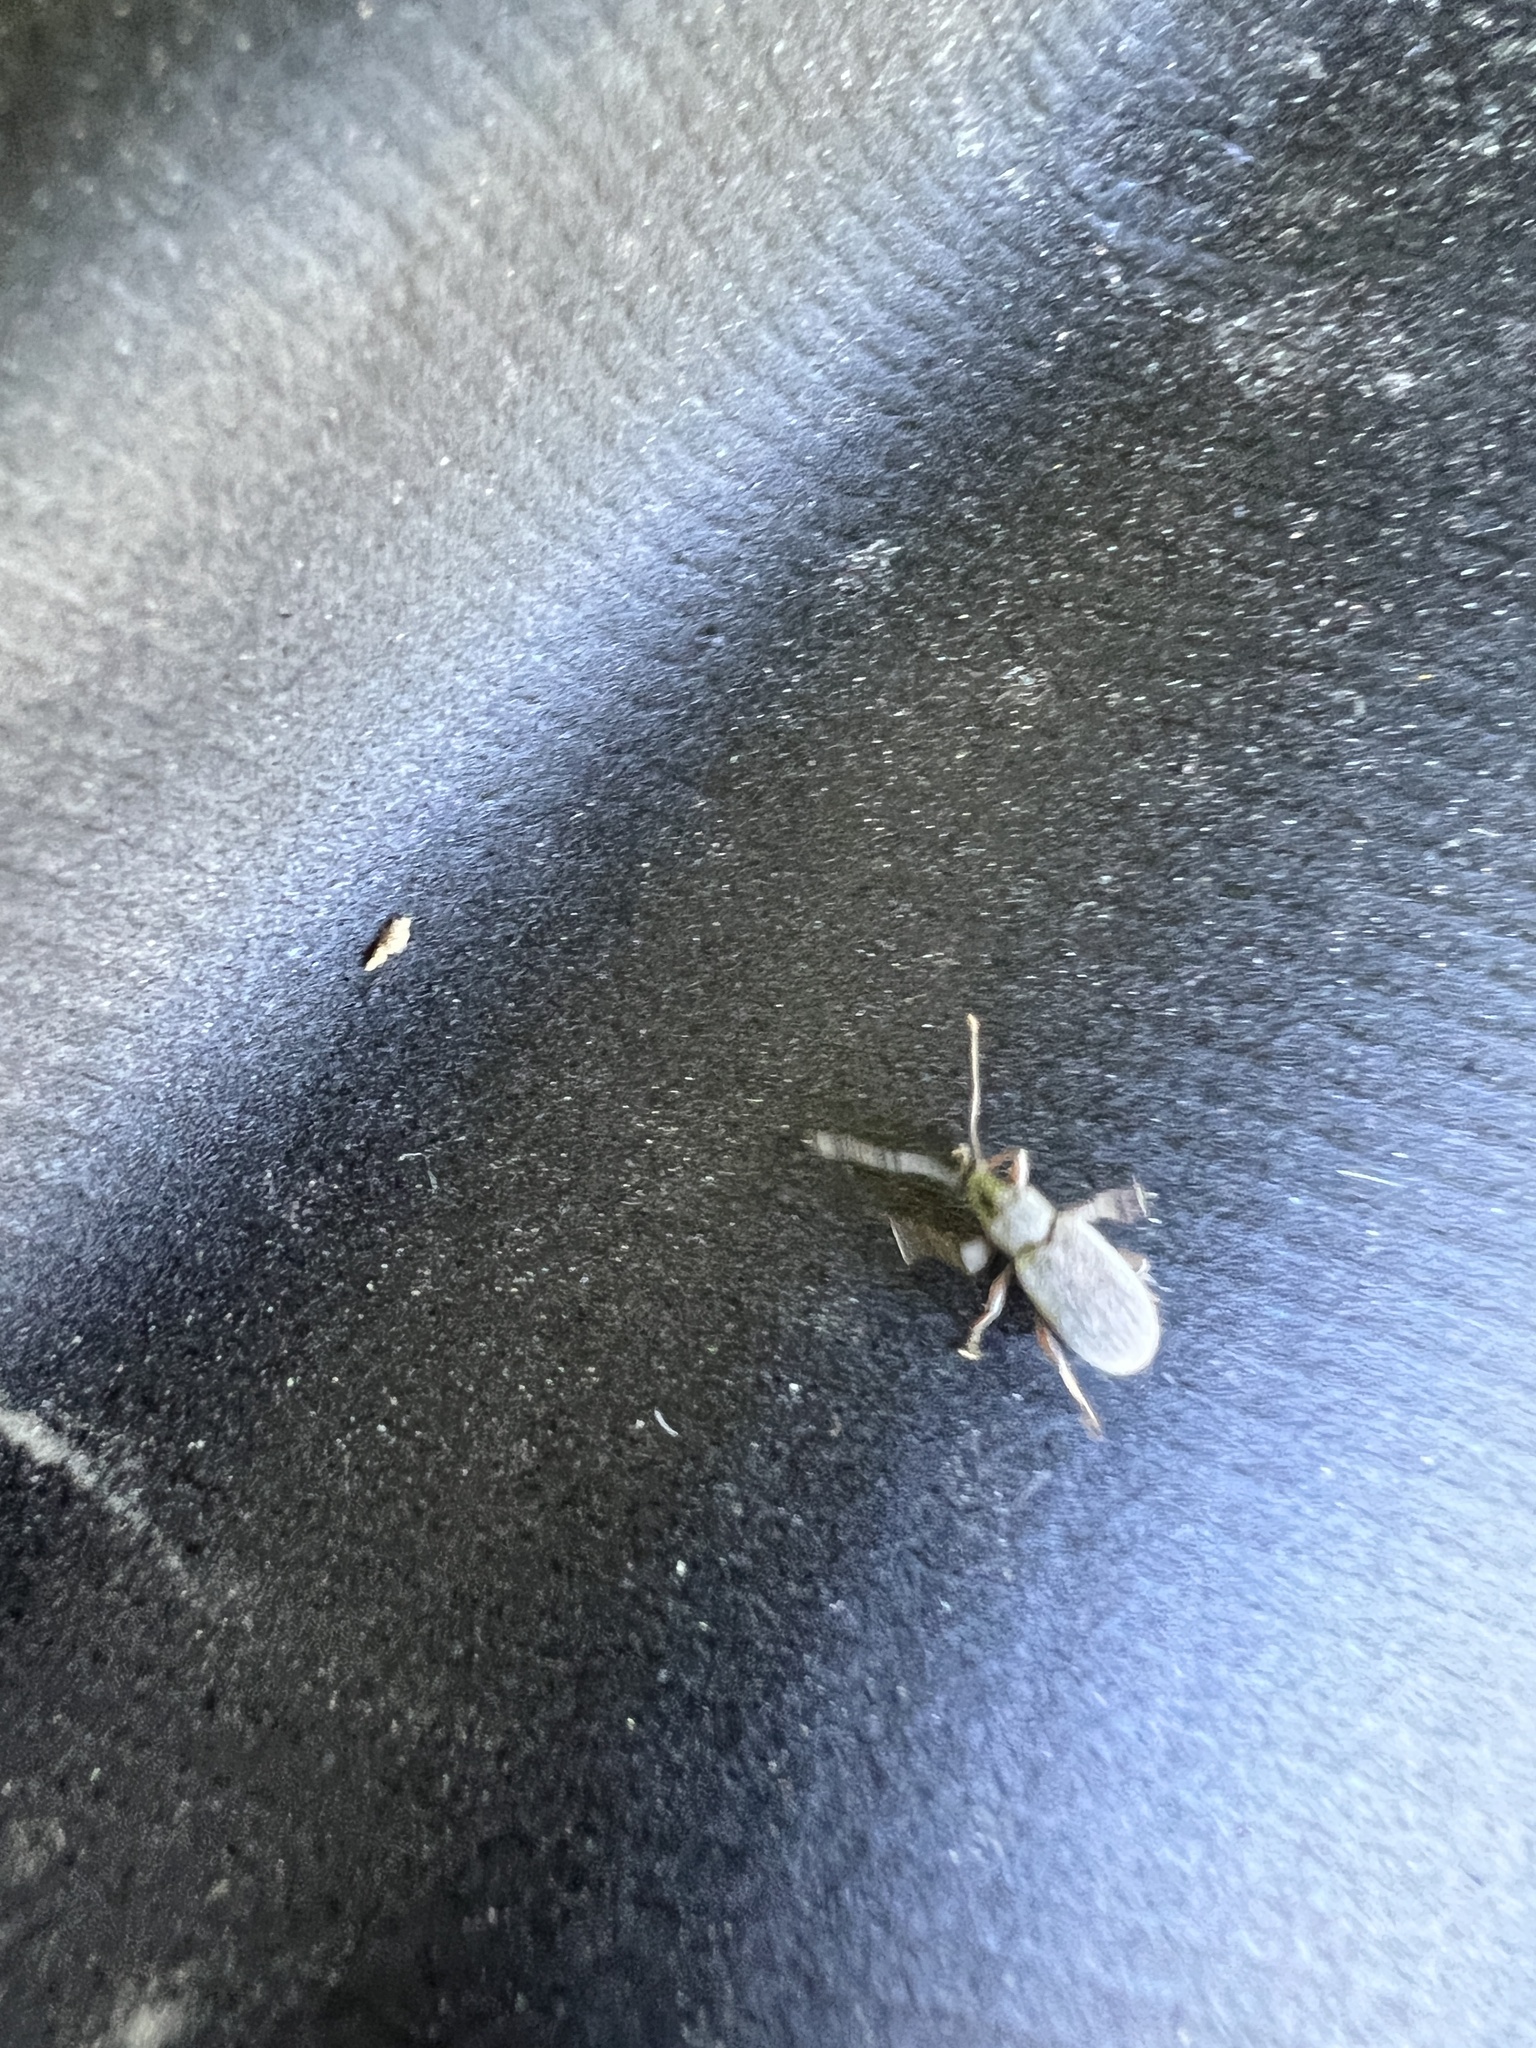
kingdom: Animalia
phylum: Arthropoda
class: Insecta
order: Coleoptera
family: Curculionidae
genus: Cyrtepistomus
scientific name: Cyrtepistomus castaneus
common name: Weevil
